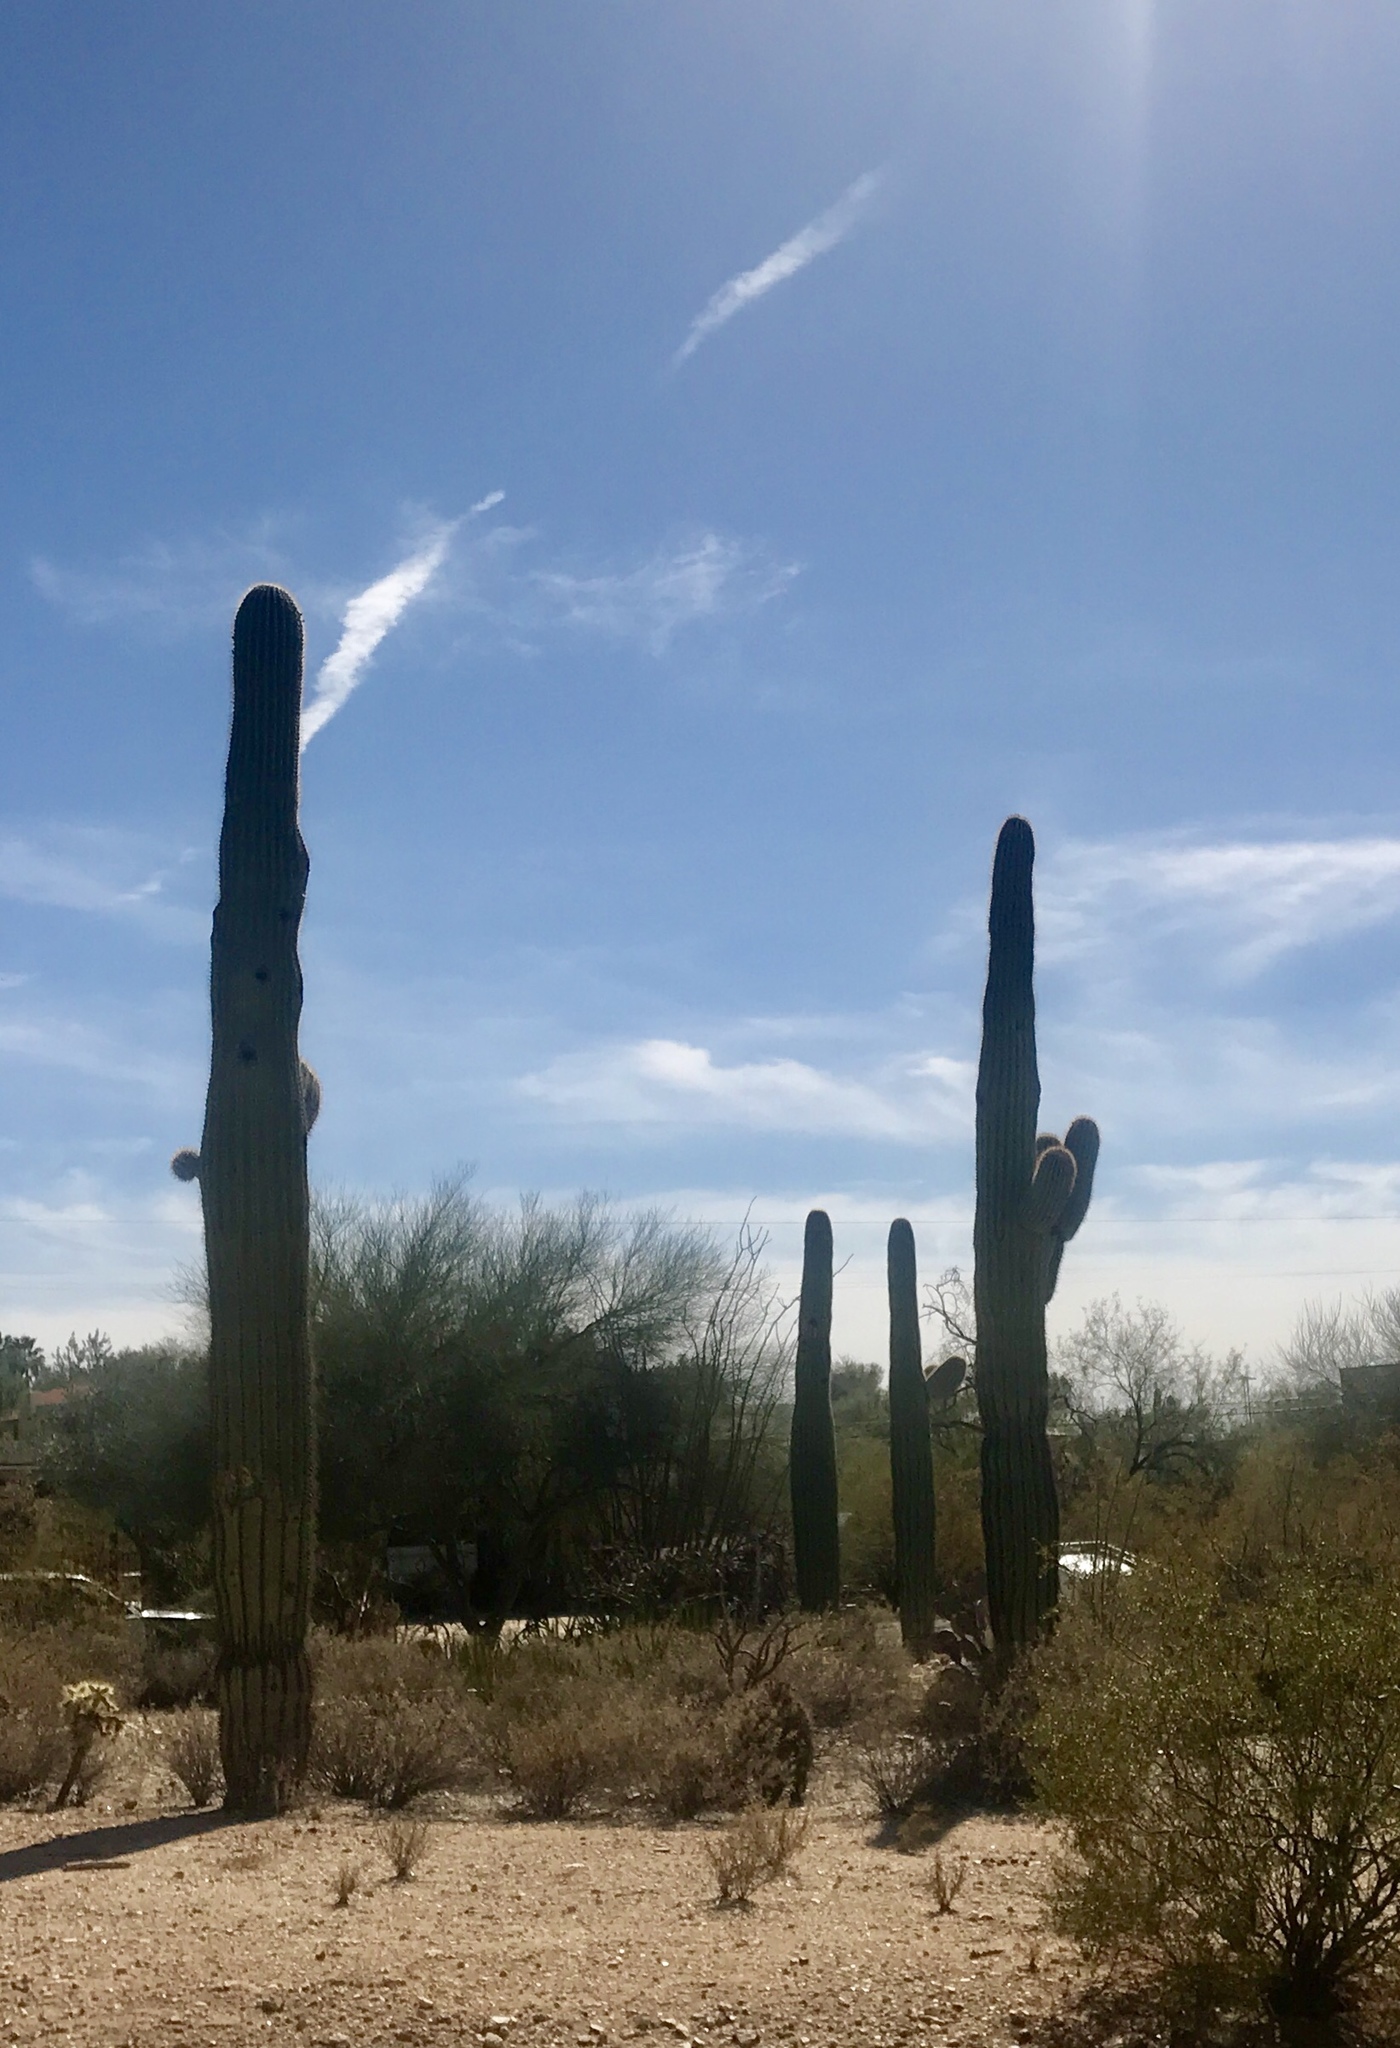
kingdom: Plantae
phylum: Tracheophyta
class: Magnoliopsida
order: Caryophyllales
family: Cactaceae
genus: Carnegiea
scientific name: Carnegiea gigantea
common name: Saguaro
